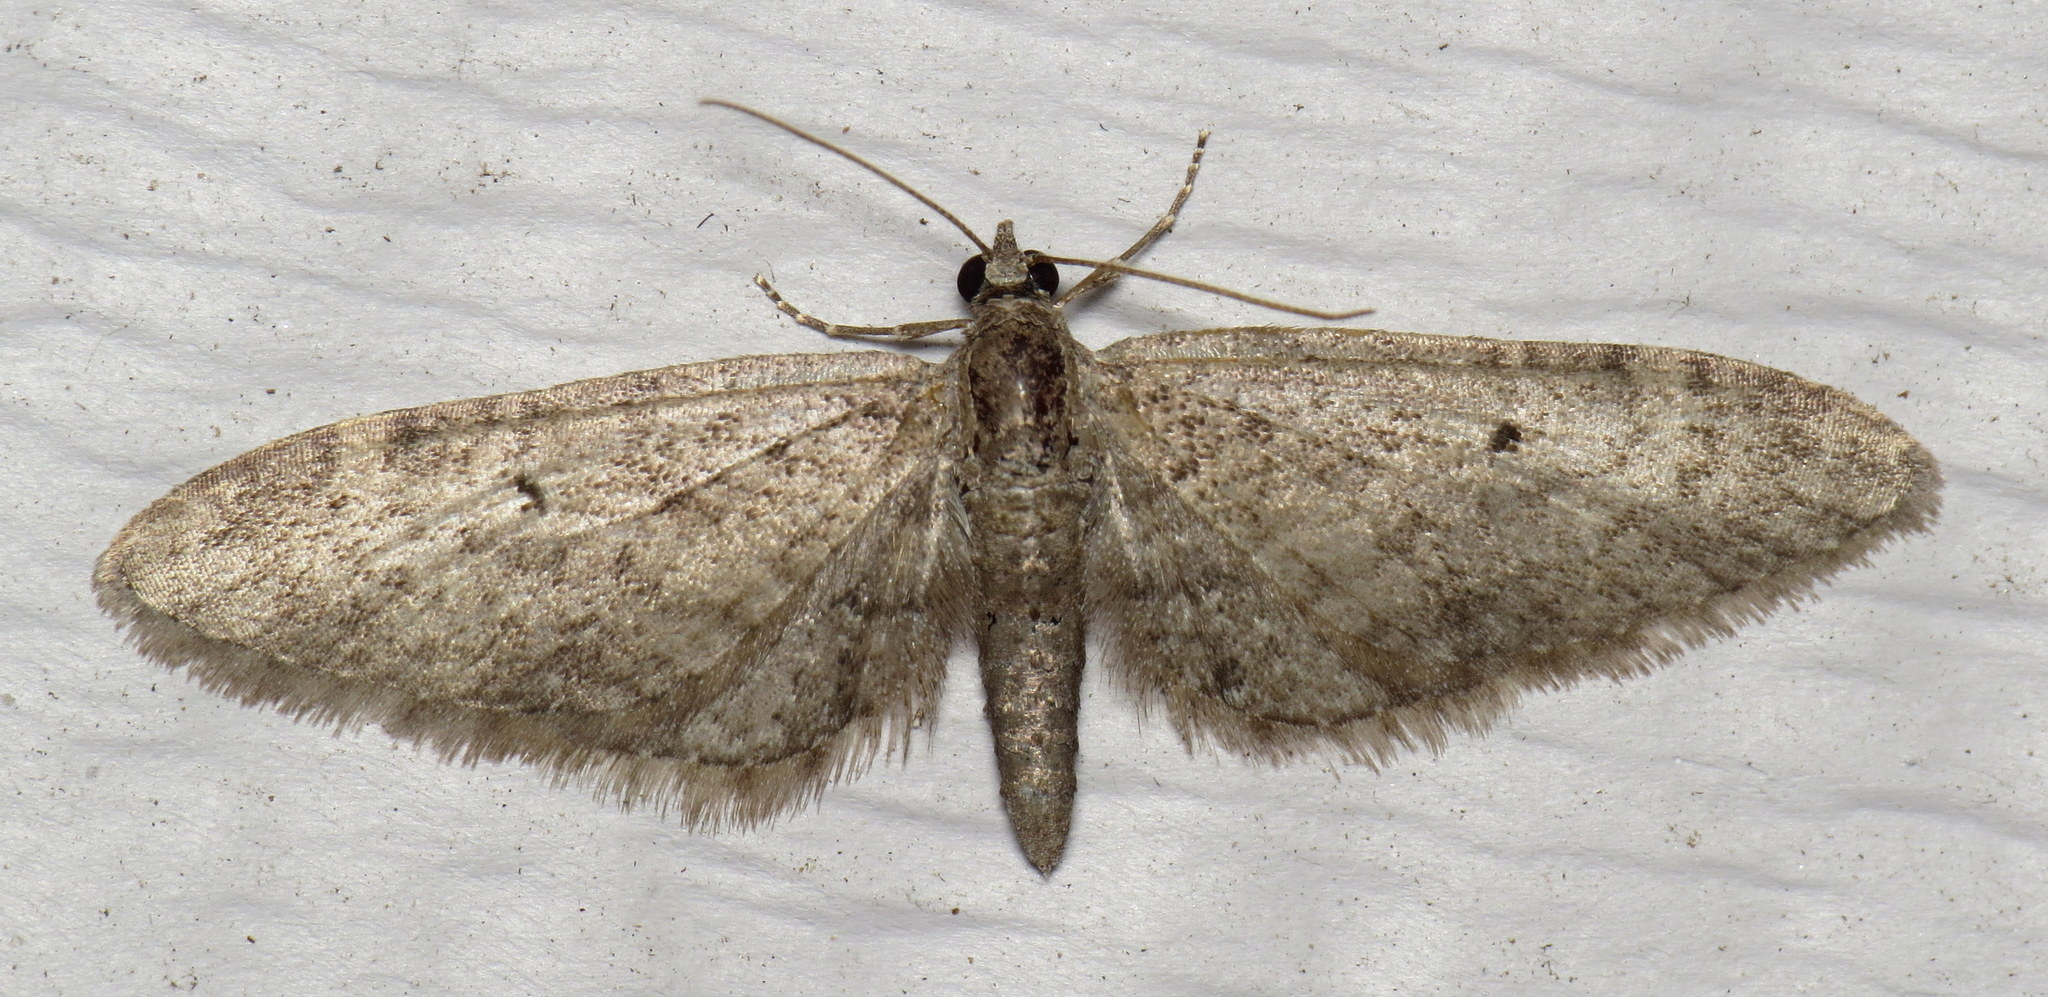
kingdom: Animalia
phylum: Arthropoda
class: Insecta
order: Lepidoptera
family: Geometridae
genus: Eupithecia
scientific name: Eupithecia
